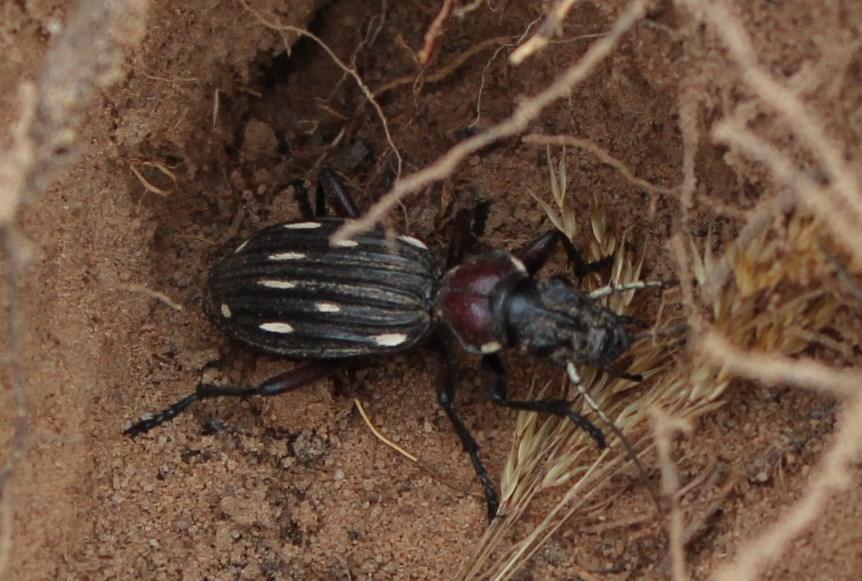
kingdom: Animalia
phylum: Arthropoda
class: Insecta
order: Coleoptera
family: Carabidae
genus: Anthia
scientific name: Anthia decemguttata
